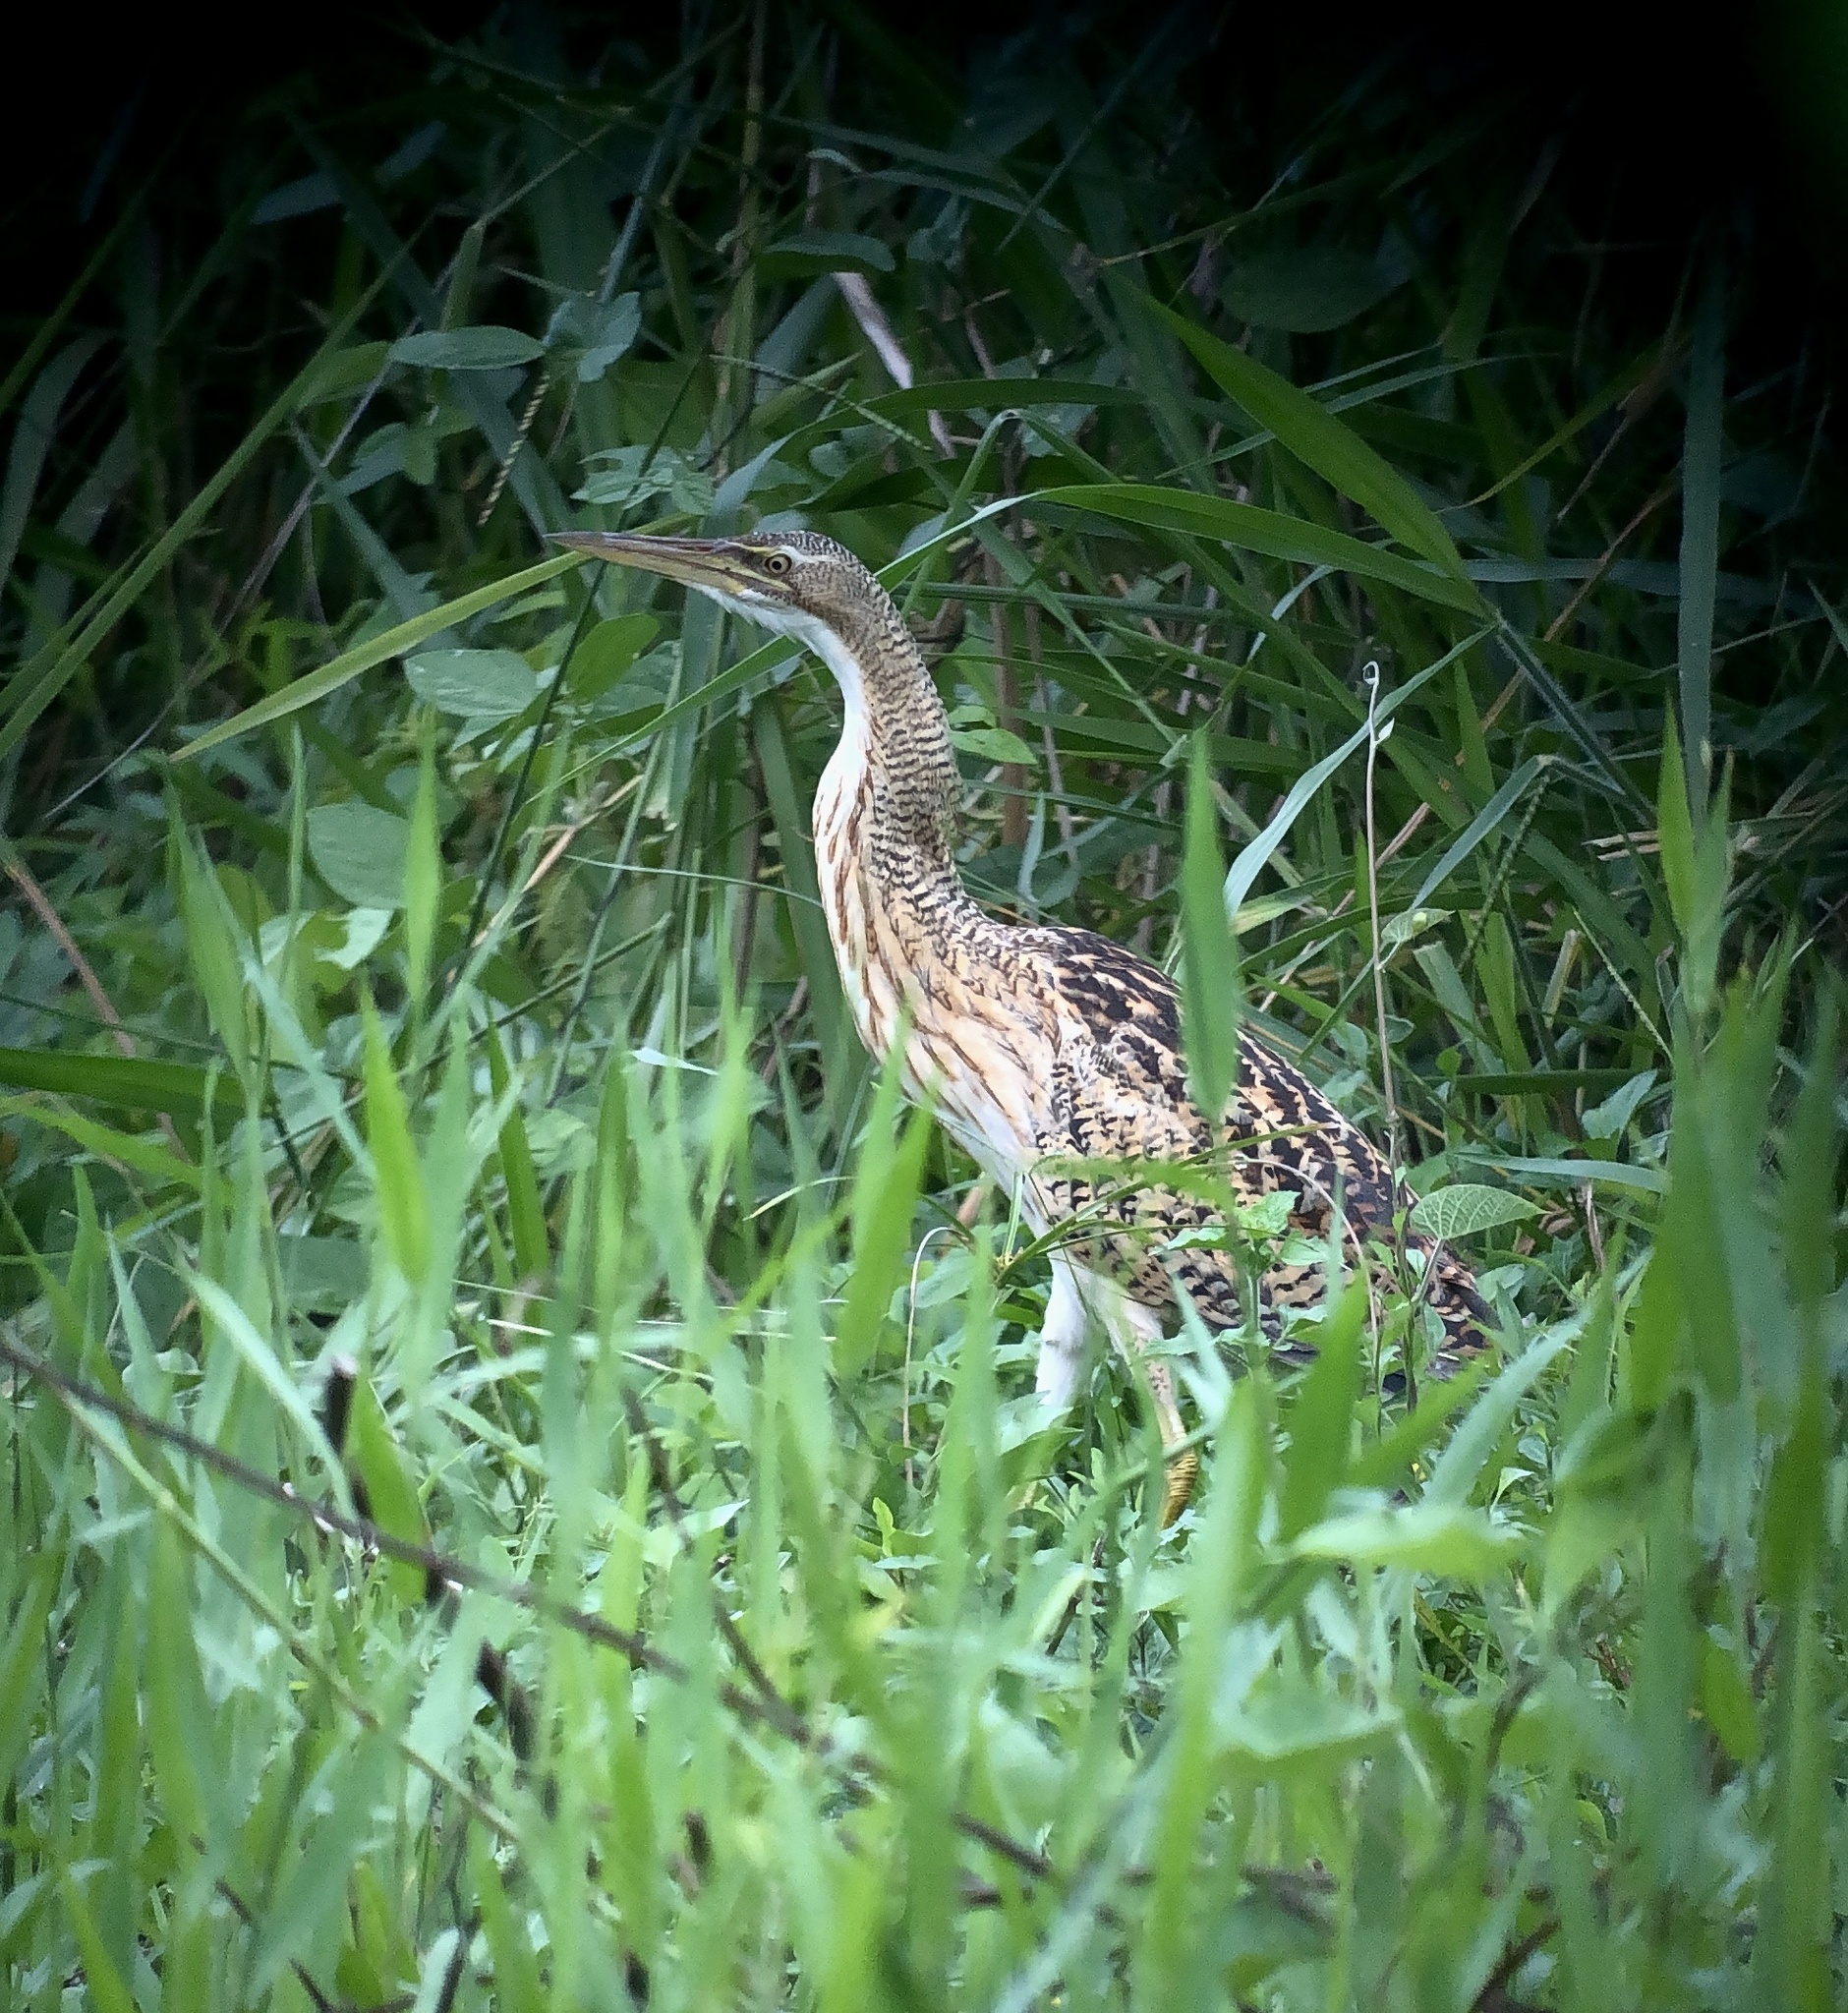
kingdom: Animalia
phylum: Chordata
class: Aves
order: Pelecaniformes
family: Ardeidae
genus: Botaurus
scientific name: Botaurus pinnatus
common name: Pinnated bittern
